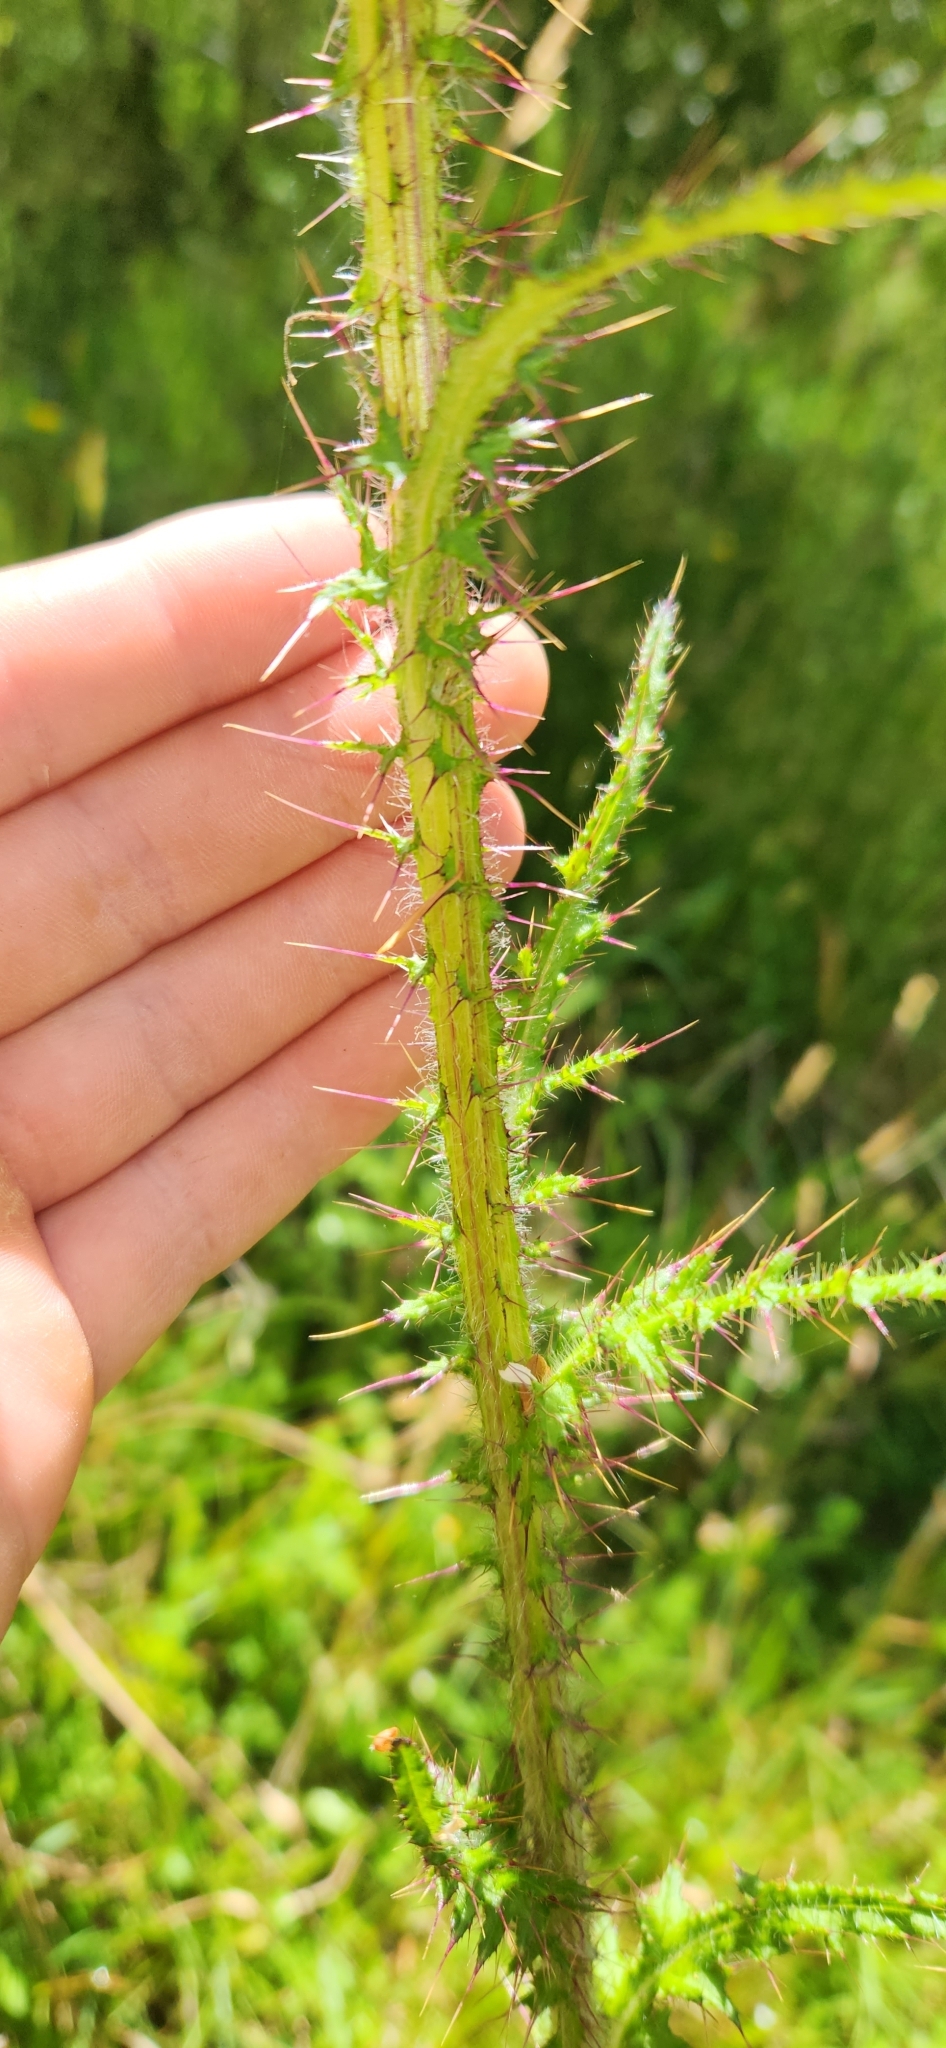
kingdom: Plantae
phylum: Tracheophyta
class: Magnoliopsida
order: Asterales
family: Asteraceae
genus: Cirsium
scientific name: Cirsium palustre
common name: Marsh thistle
